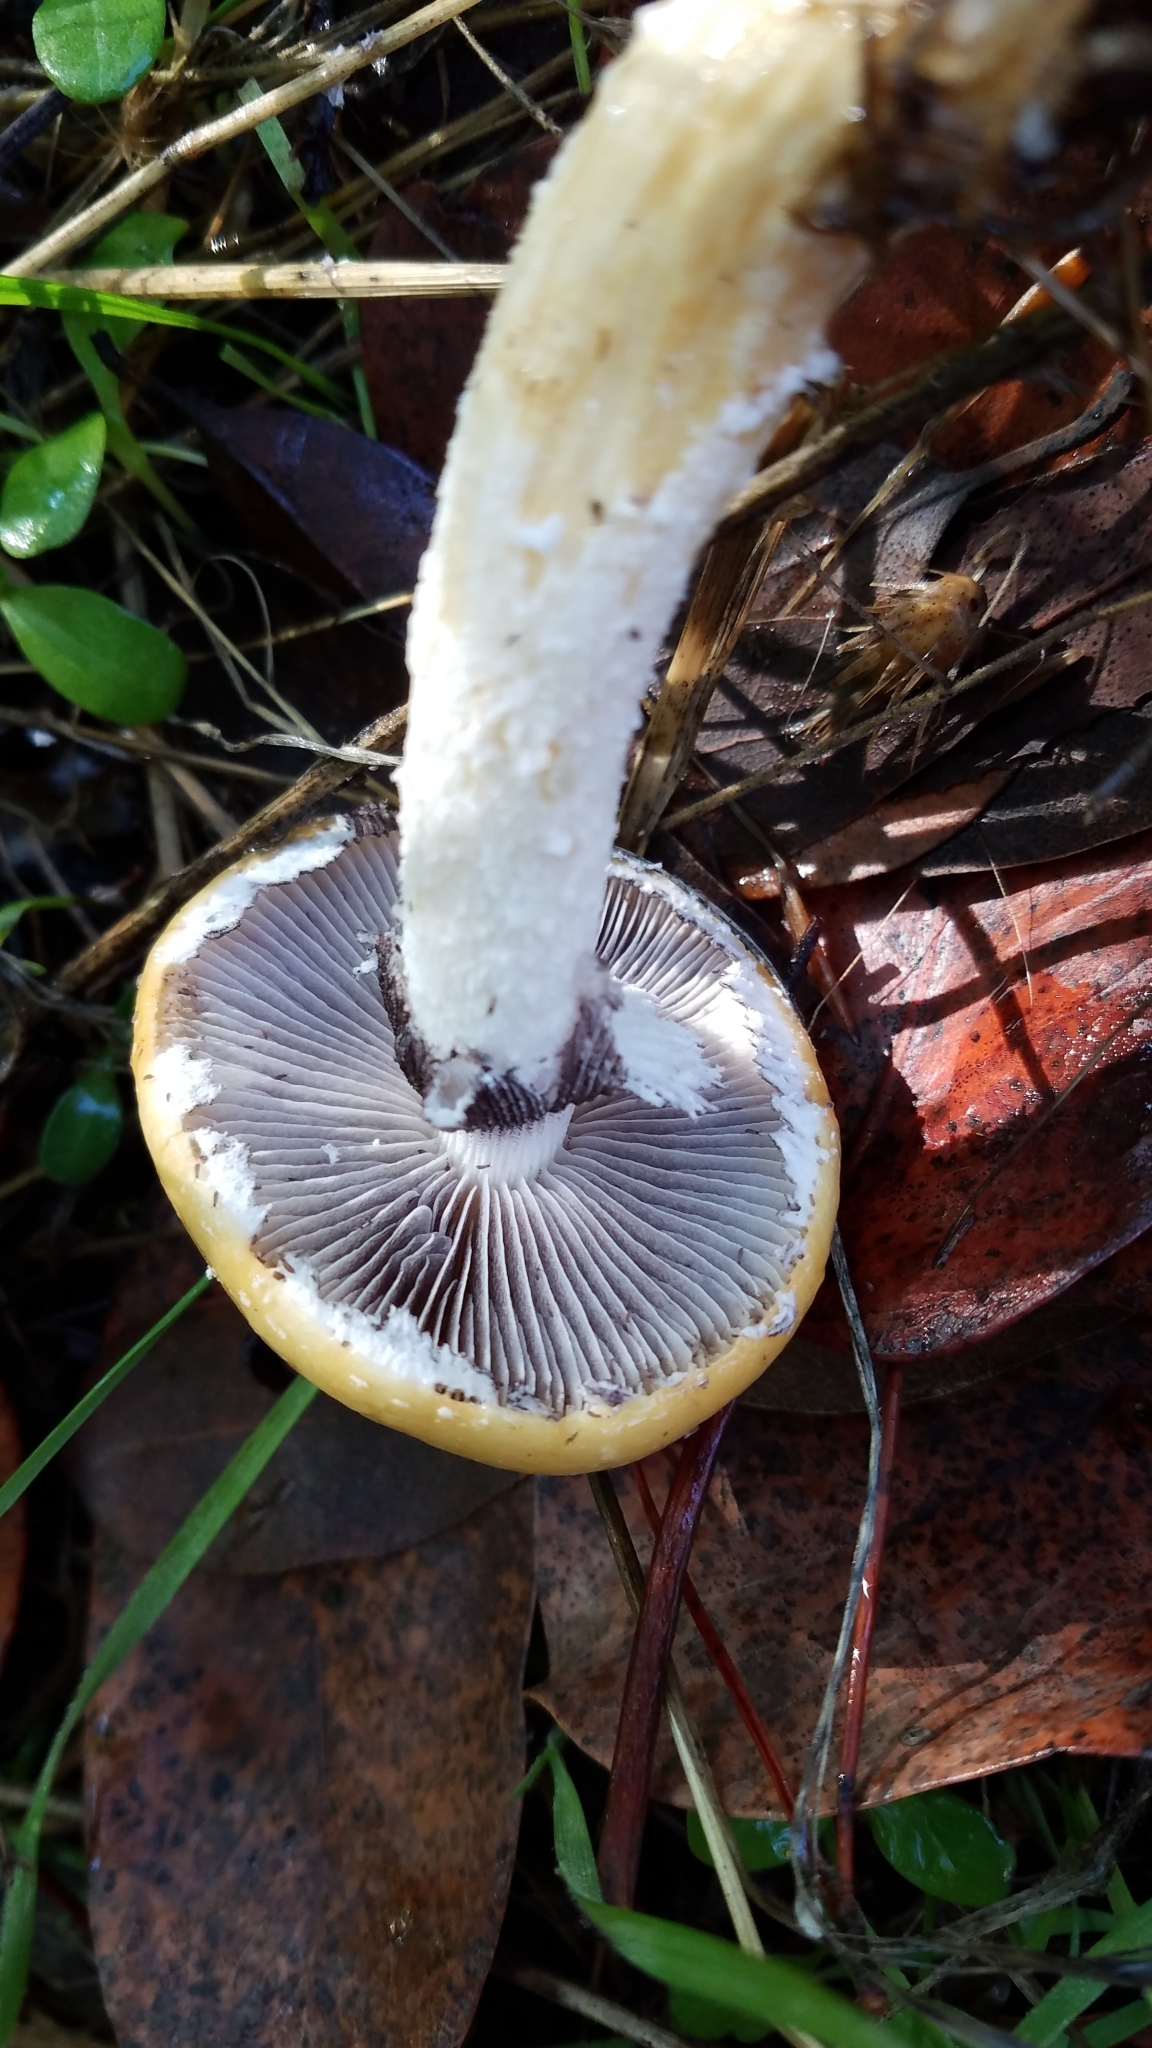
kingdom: Fungi
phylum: Basidiomycota
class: Agaricomycetes
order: Agaricales
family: Strophariaceae
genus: Stropharia
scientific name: Stropharia ambigua
